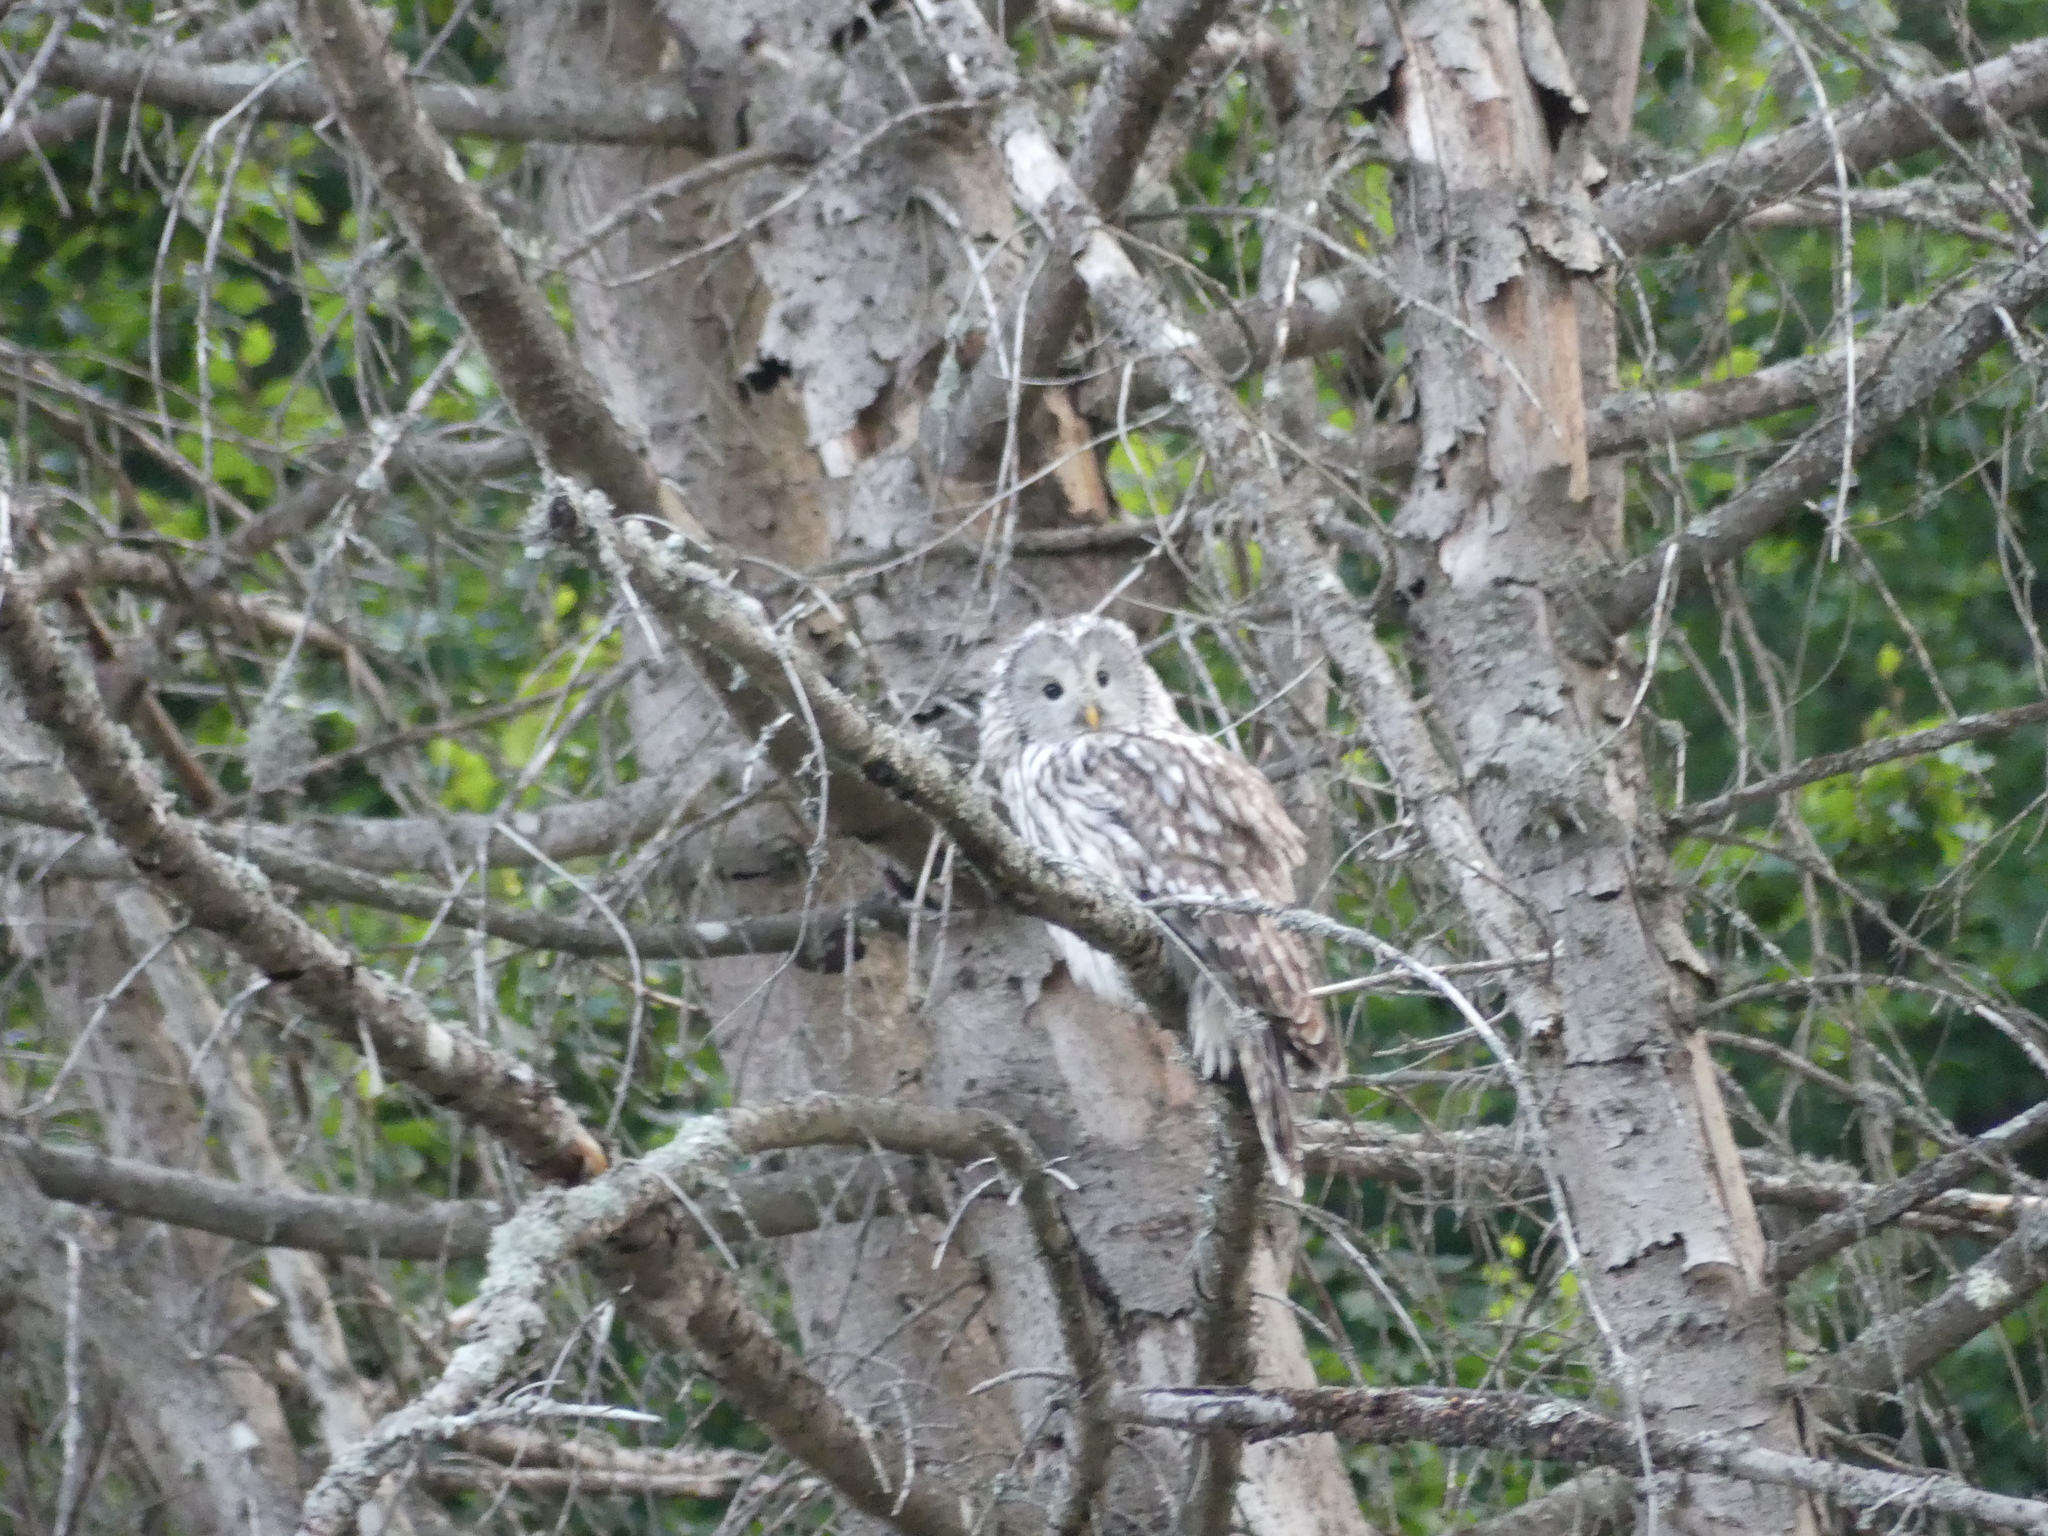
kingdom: Animalia
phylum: Chordata
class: Aves
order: Strigiformes
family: Strigidae
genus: Strix
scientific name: Strix uralensis
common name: Ural owl
